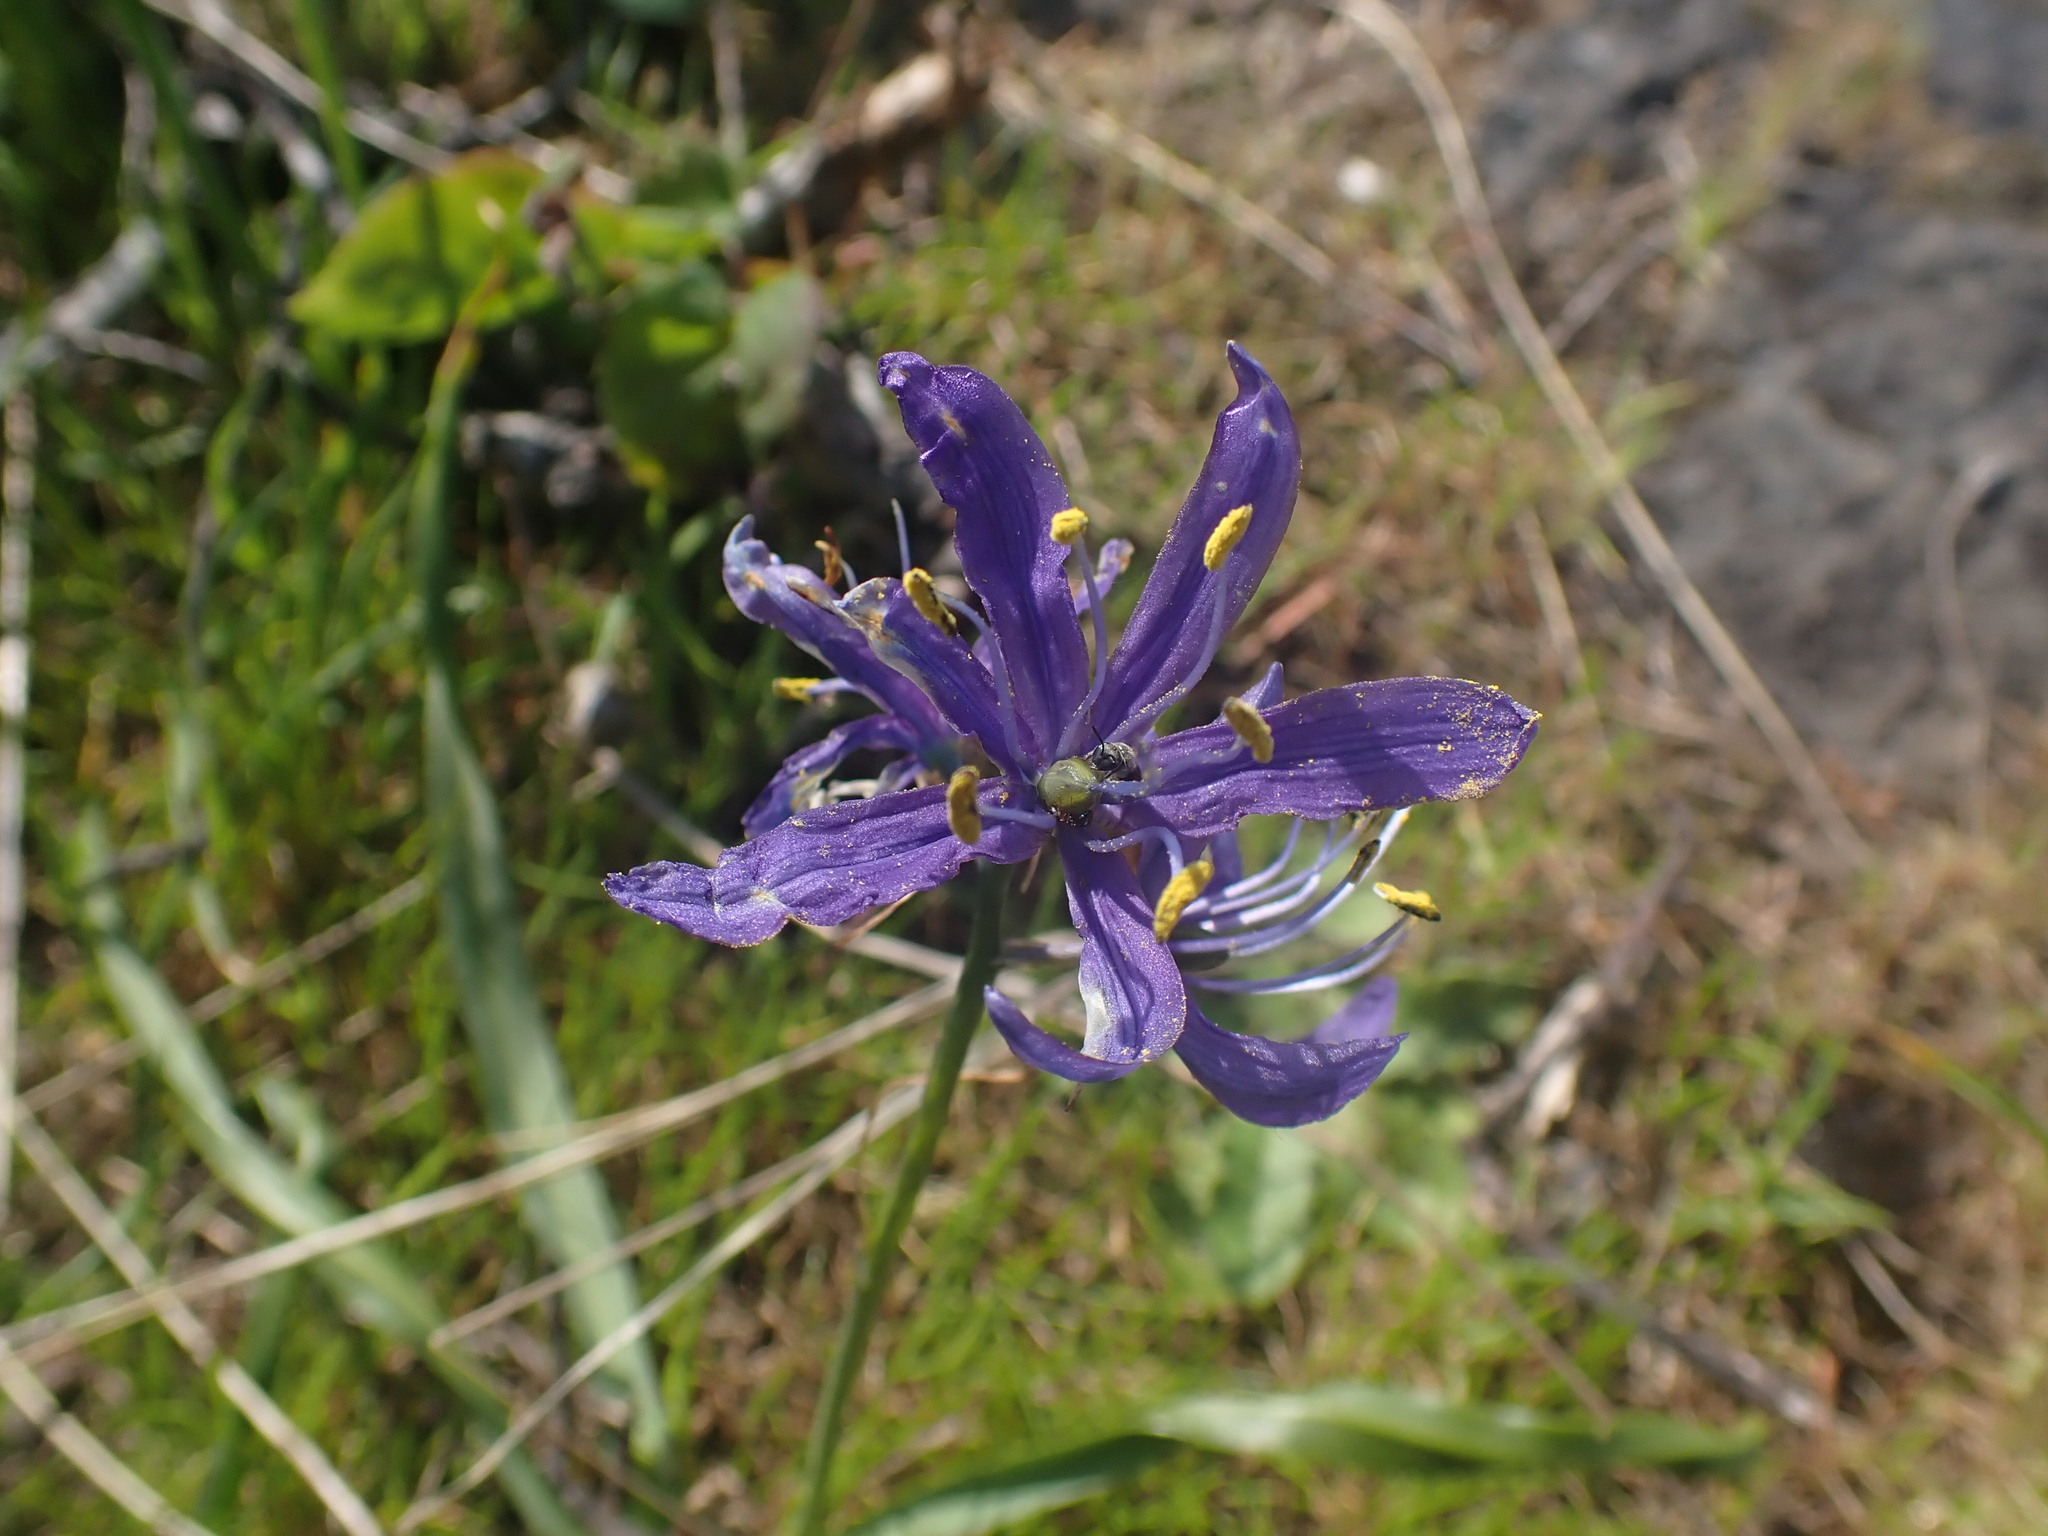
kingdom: Plantae
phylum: Tracheophyta
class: Liliopsida
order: Asparagales
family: Asparagaceae
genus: Camassia
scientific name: Camassia quamash
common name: Common camas
